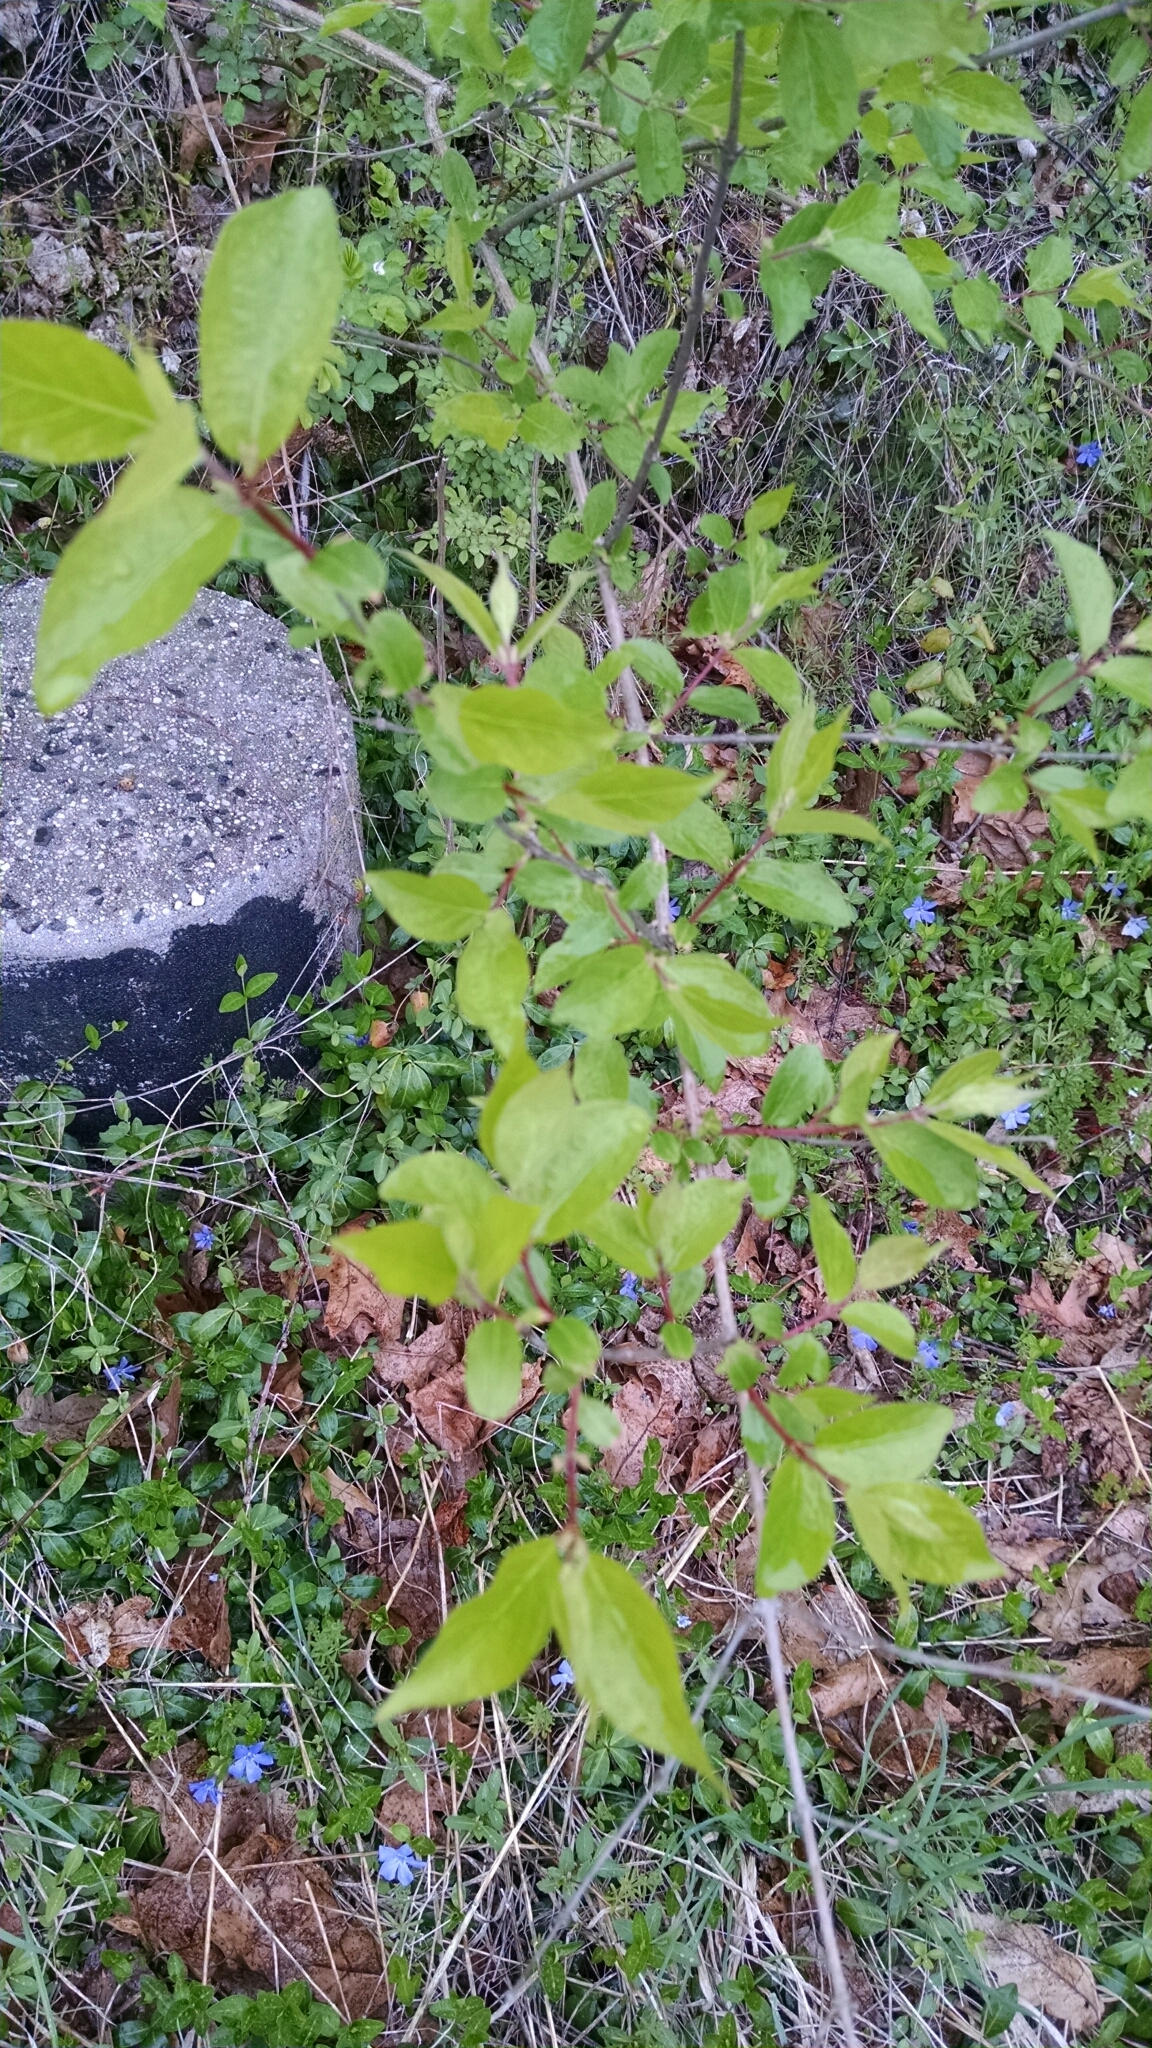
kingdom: Plantae
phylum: Tracheophyta
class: Magnoliopsida
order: Dipsacales
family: Caprifoliaceae
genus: Lonicera
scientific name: Lonicera maackii
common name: Amur honeysuckle
